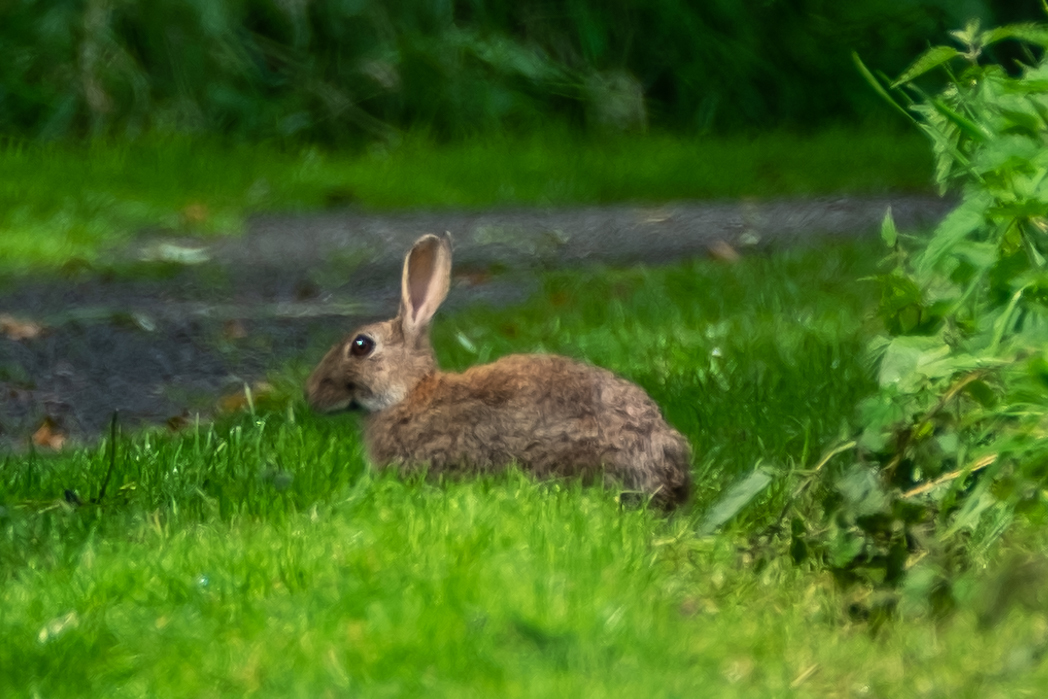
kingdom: Animalia
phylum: Chordata
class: Mammalia
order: Lagomorpha
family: Leporidae
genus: Oryctolagus
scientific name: Oryctolagus cuniculus
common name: European rabbit
